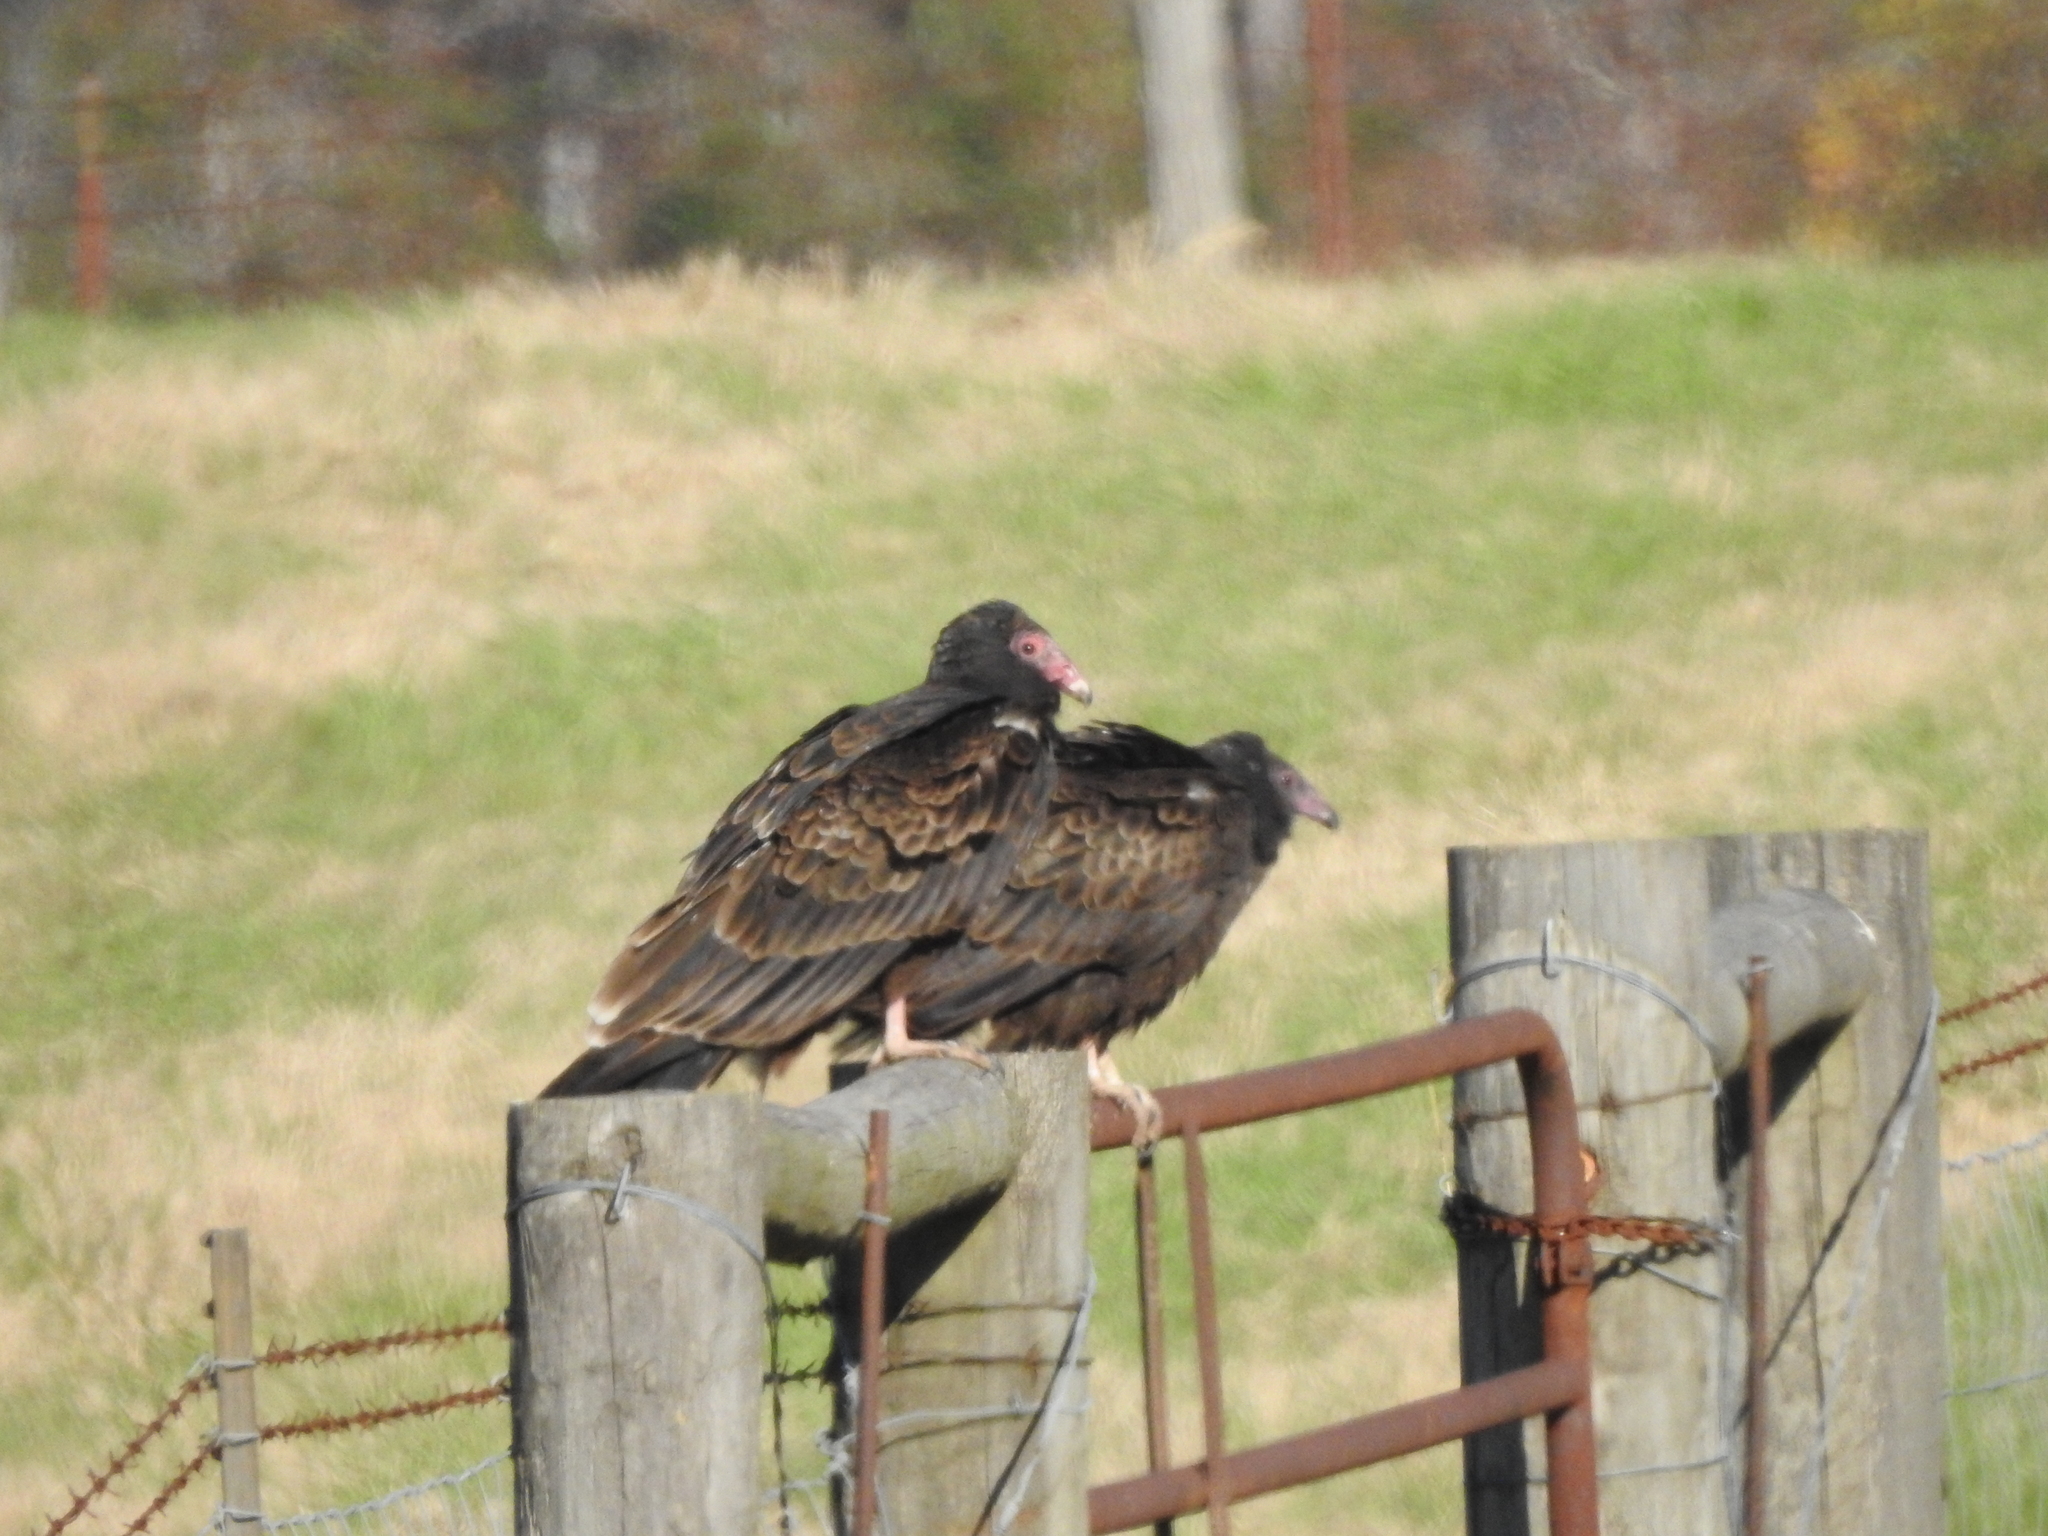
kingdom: Animalia
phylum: Chordata
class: Aves
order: Accipitriformes
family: Cathartidae
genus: Cathartes
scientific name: Cathartes aura
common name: Turkey vulture
